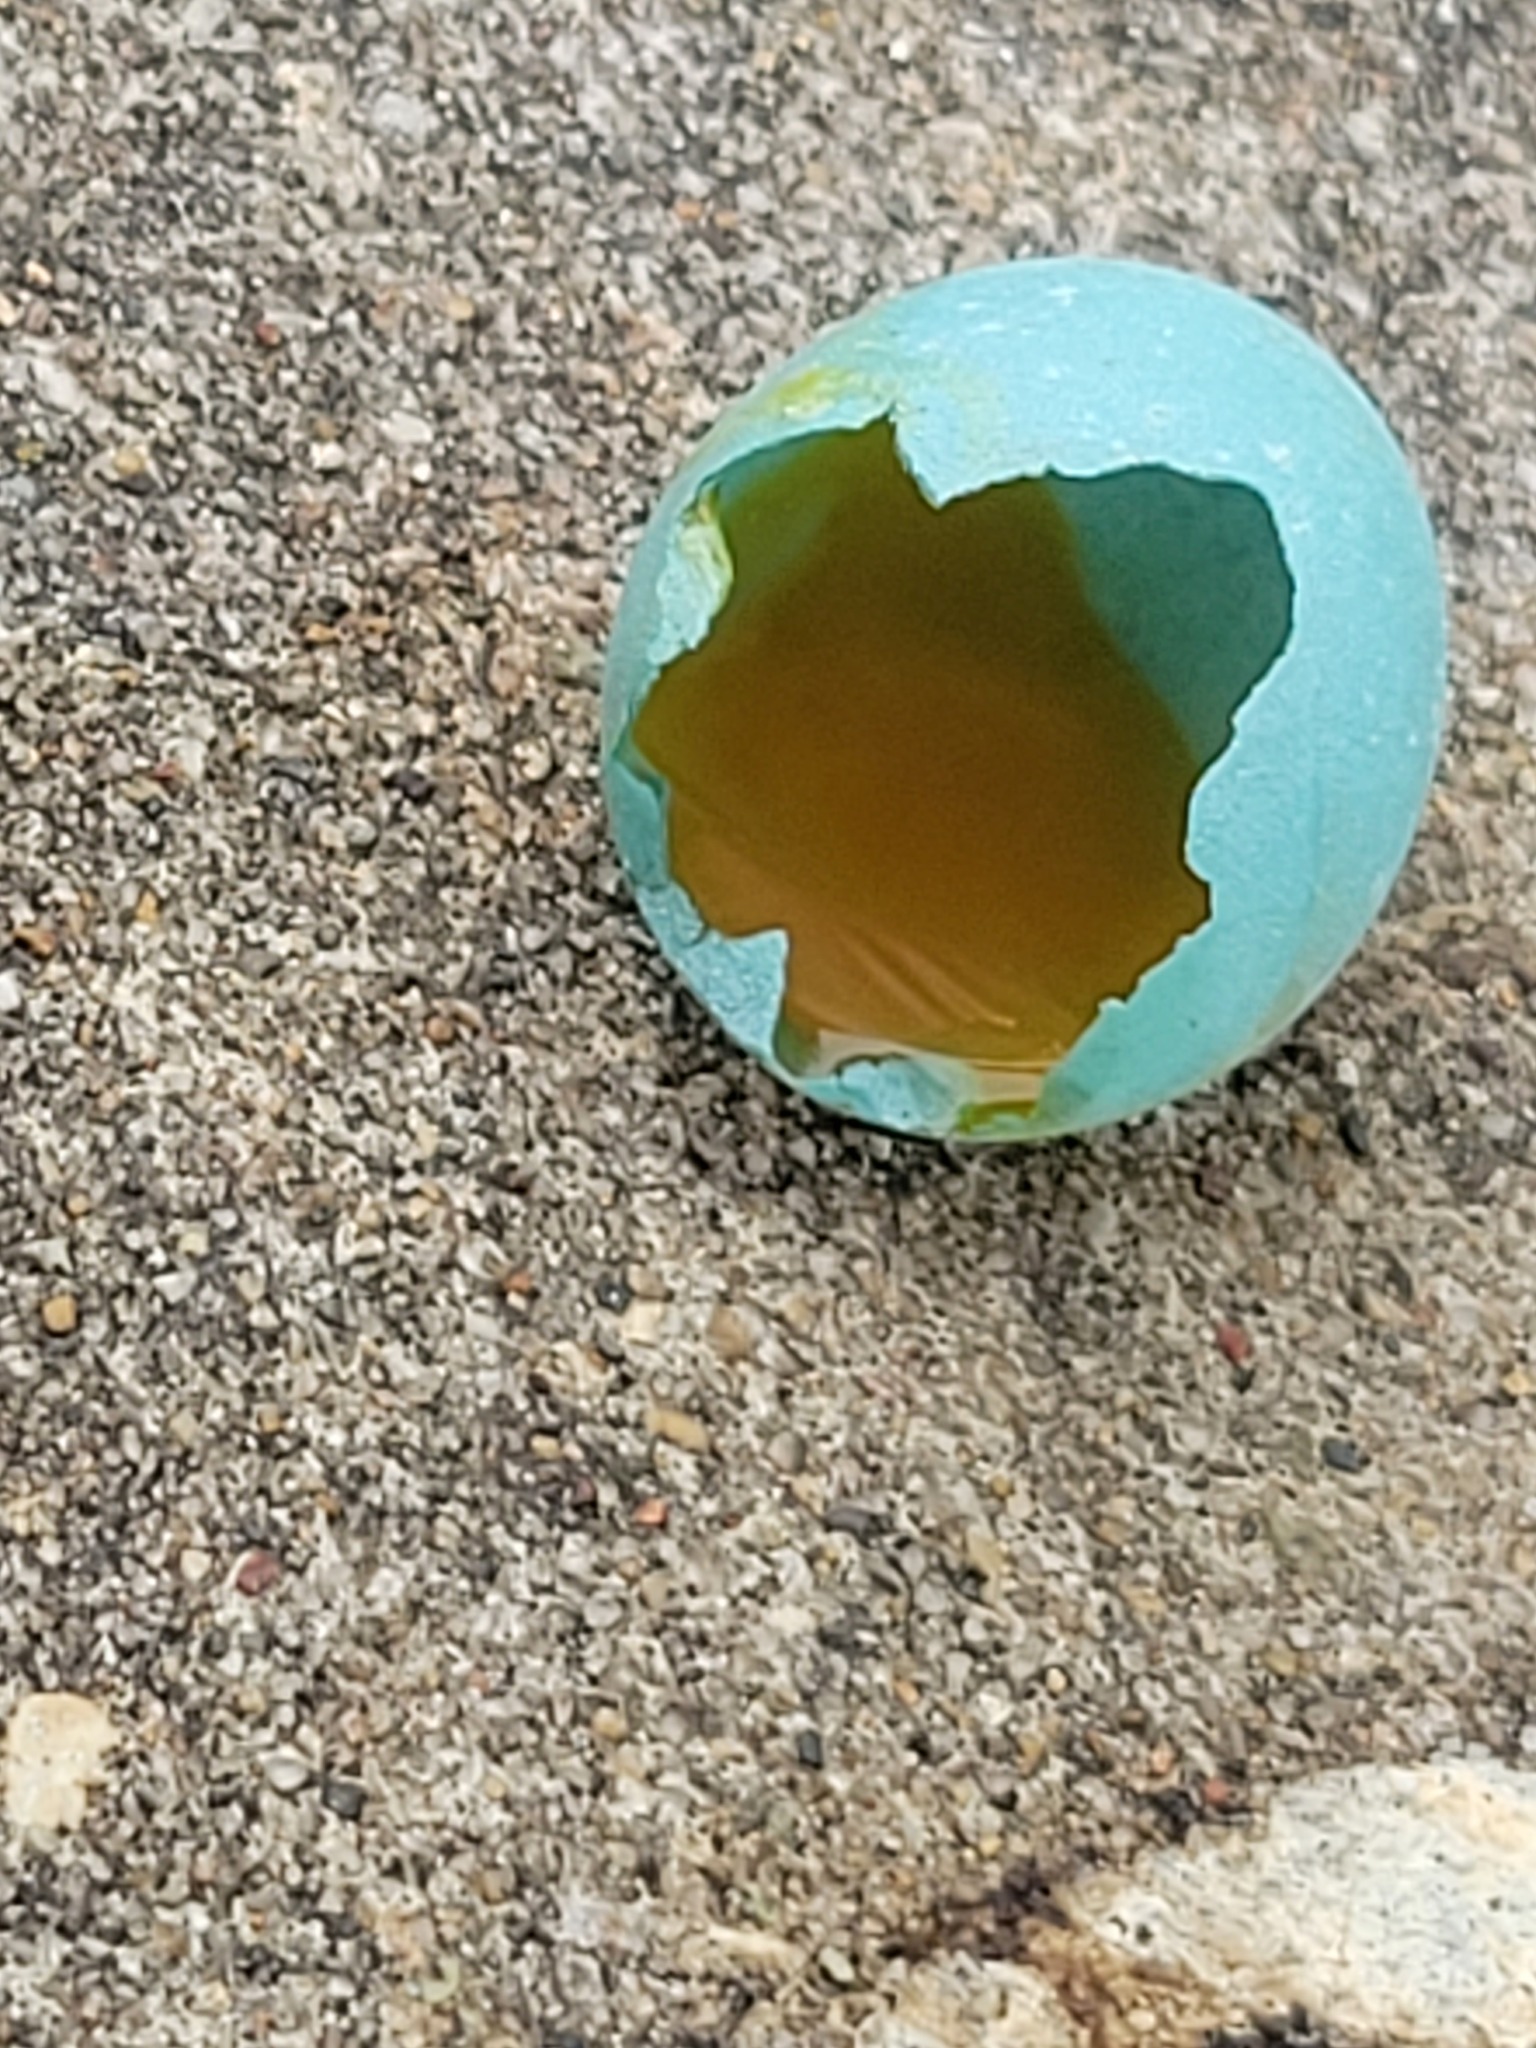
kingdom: Animalia
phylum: Chordata
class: Aves
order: Passeriformes
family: Turdidae
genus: Turdus
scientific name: Turdus migratorius
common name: American robin
